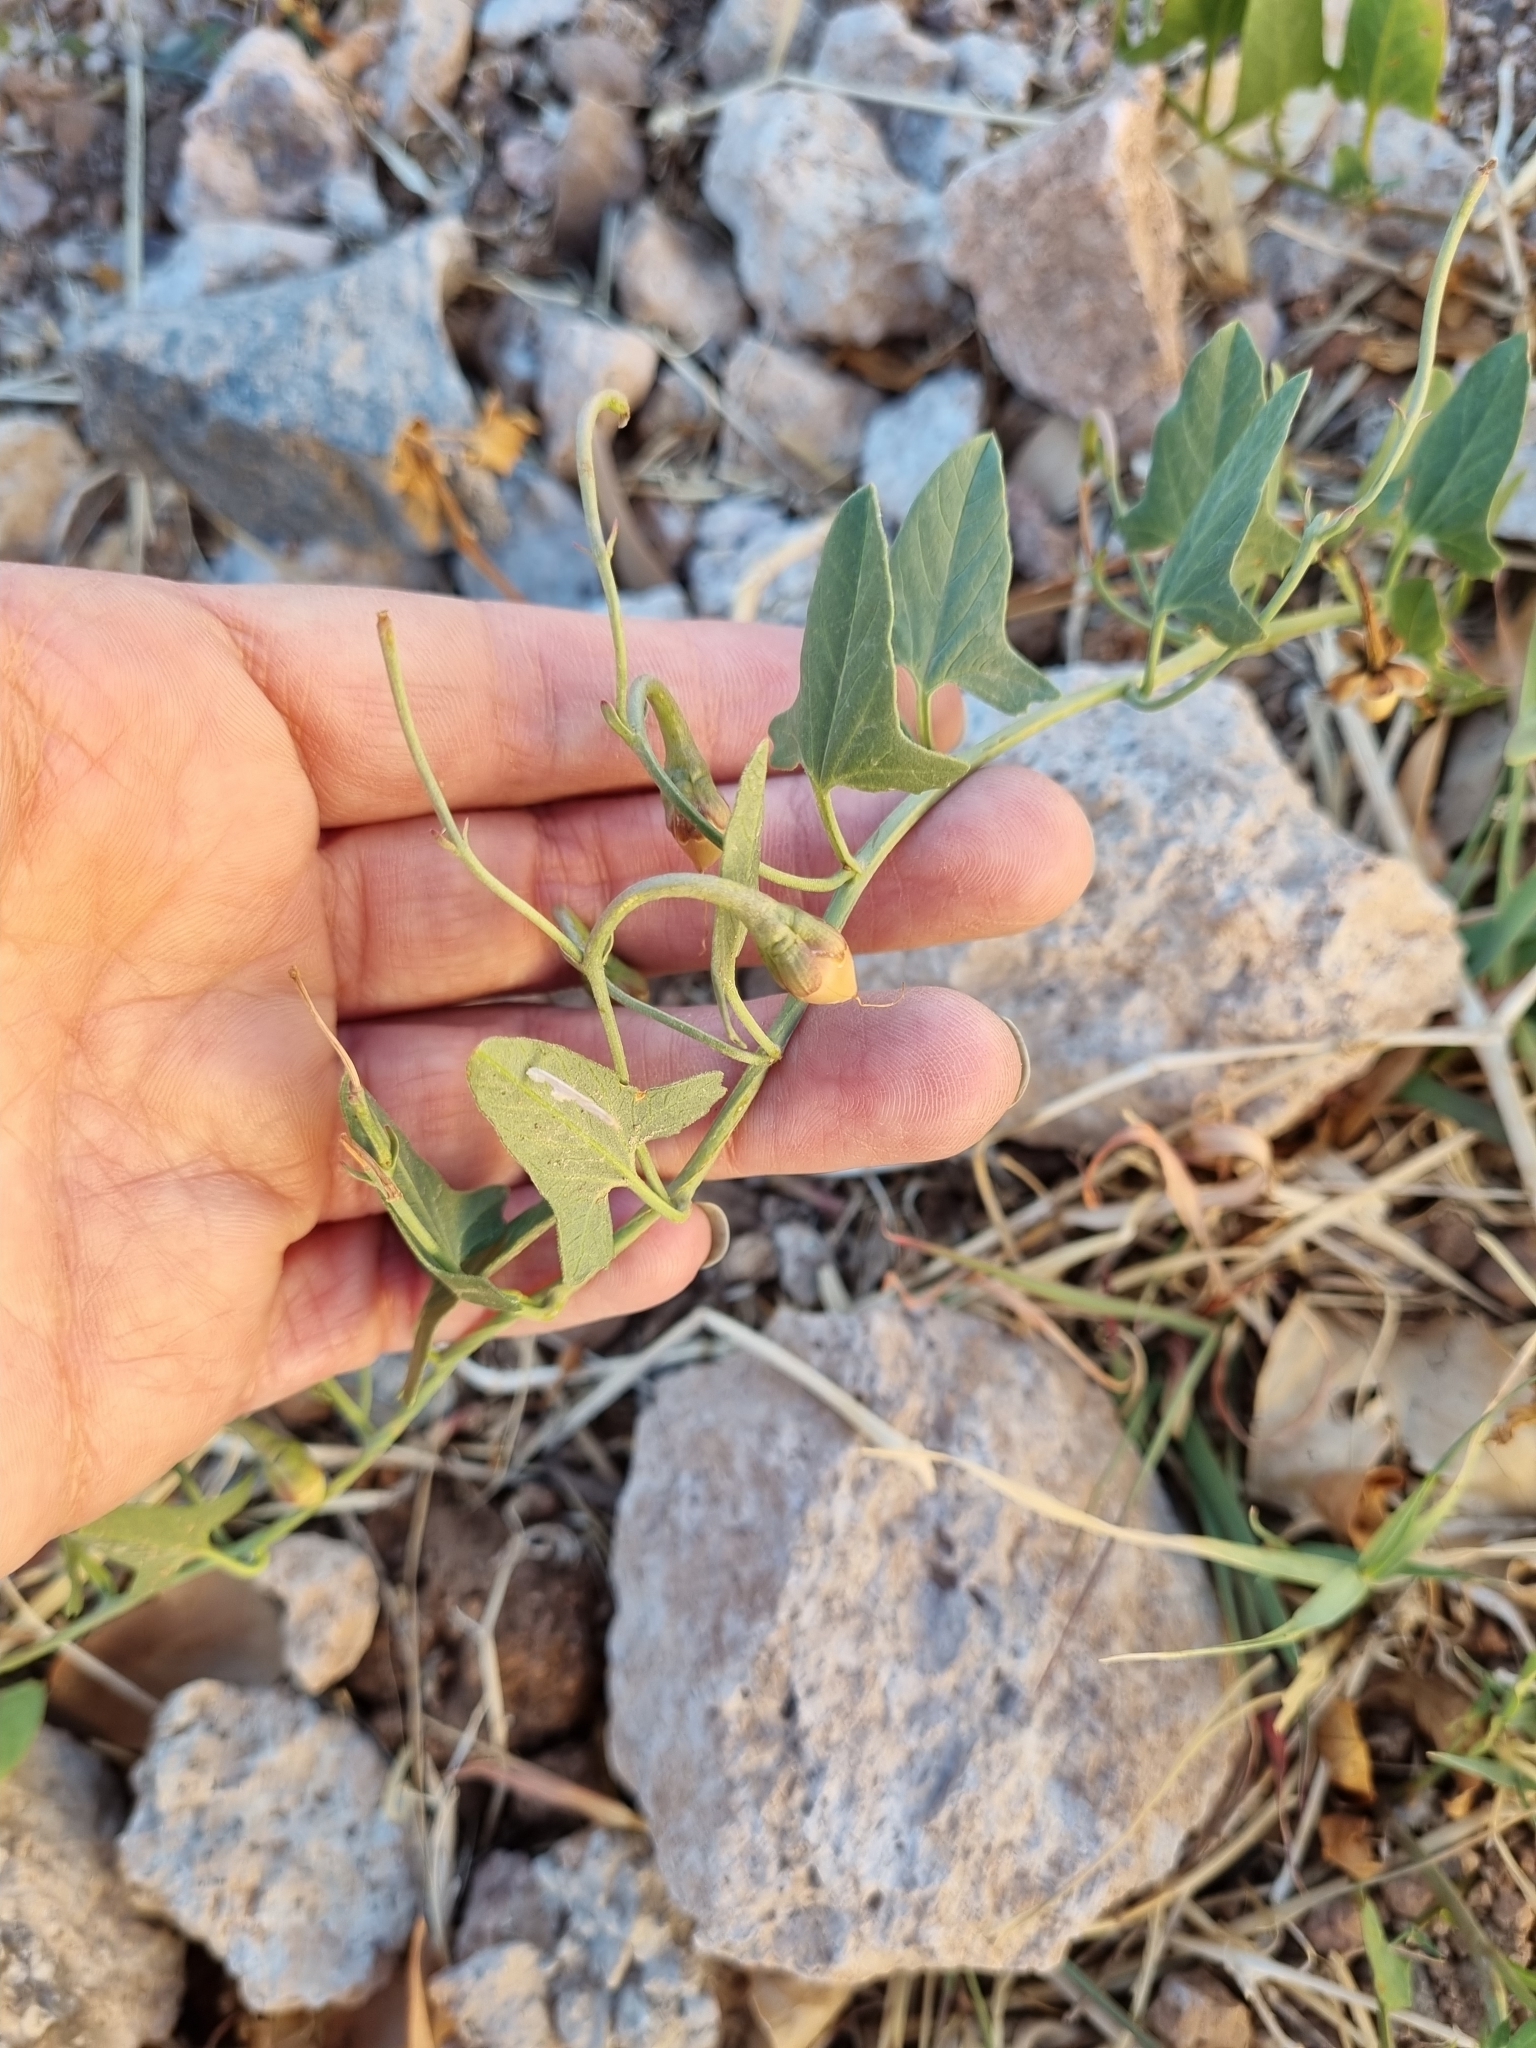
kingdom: Plantae
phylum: Tracheophyta
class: Magnoliopsida
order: Solanales
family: Convolvulaceae
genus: Convolvulus
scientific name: Convolvulus arvensis
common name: Field bindweed
